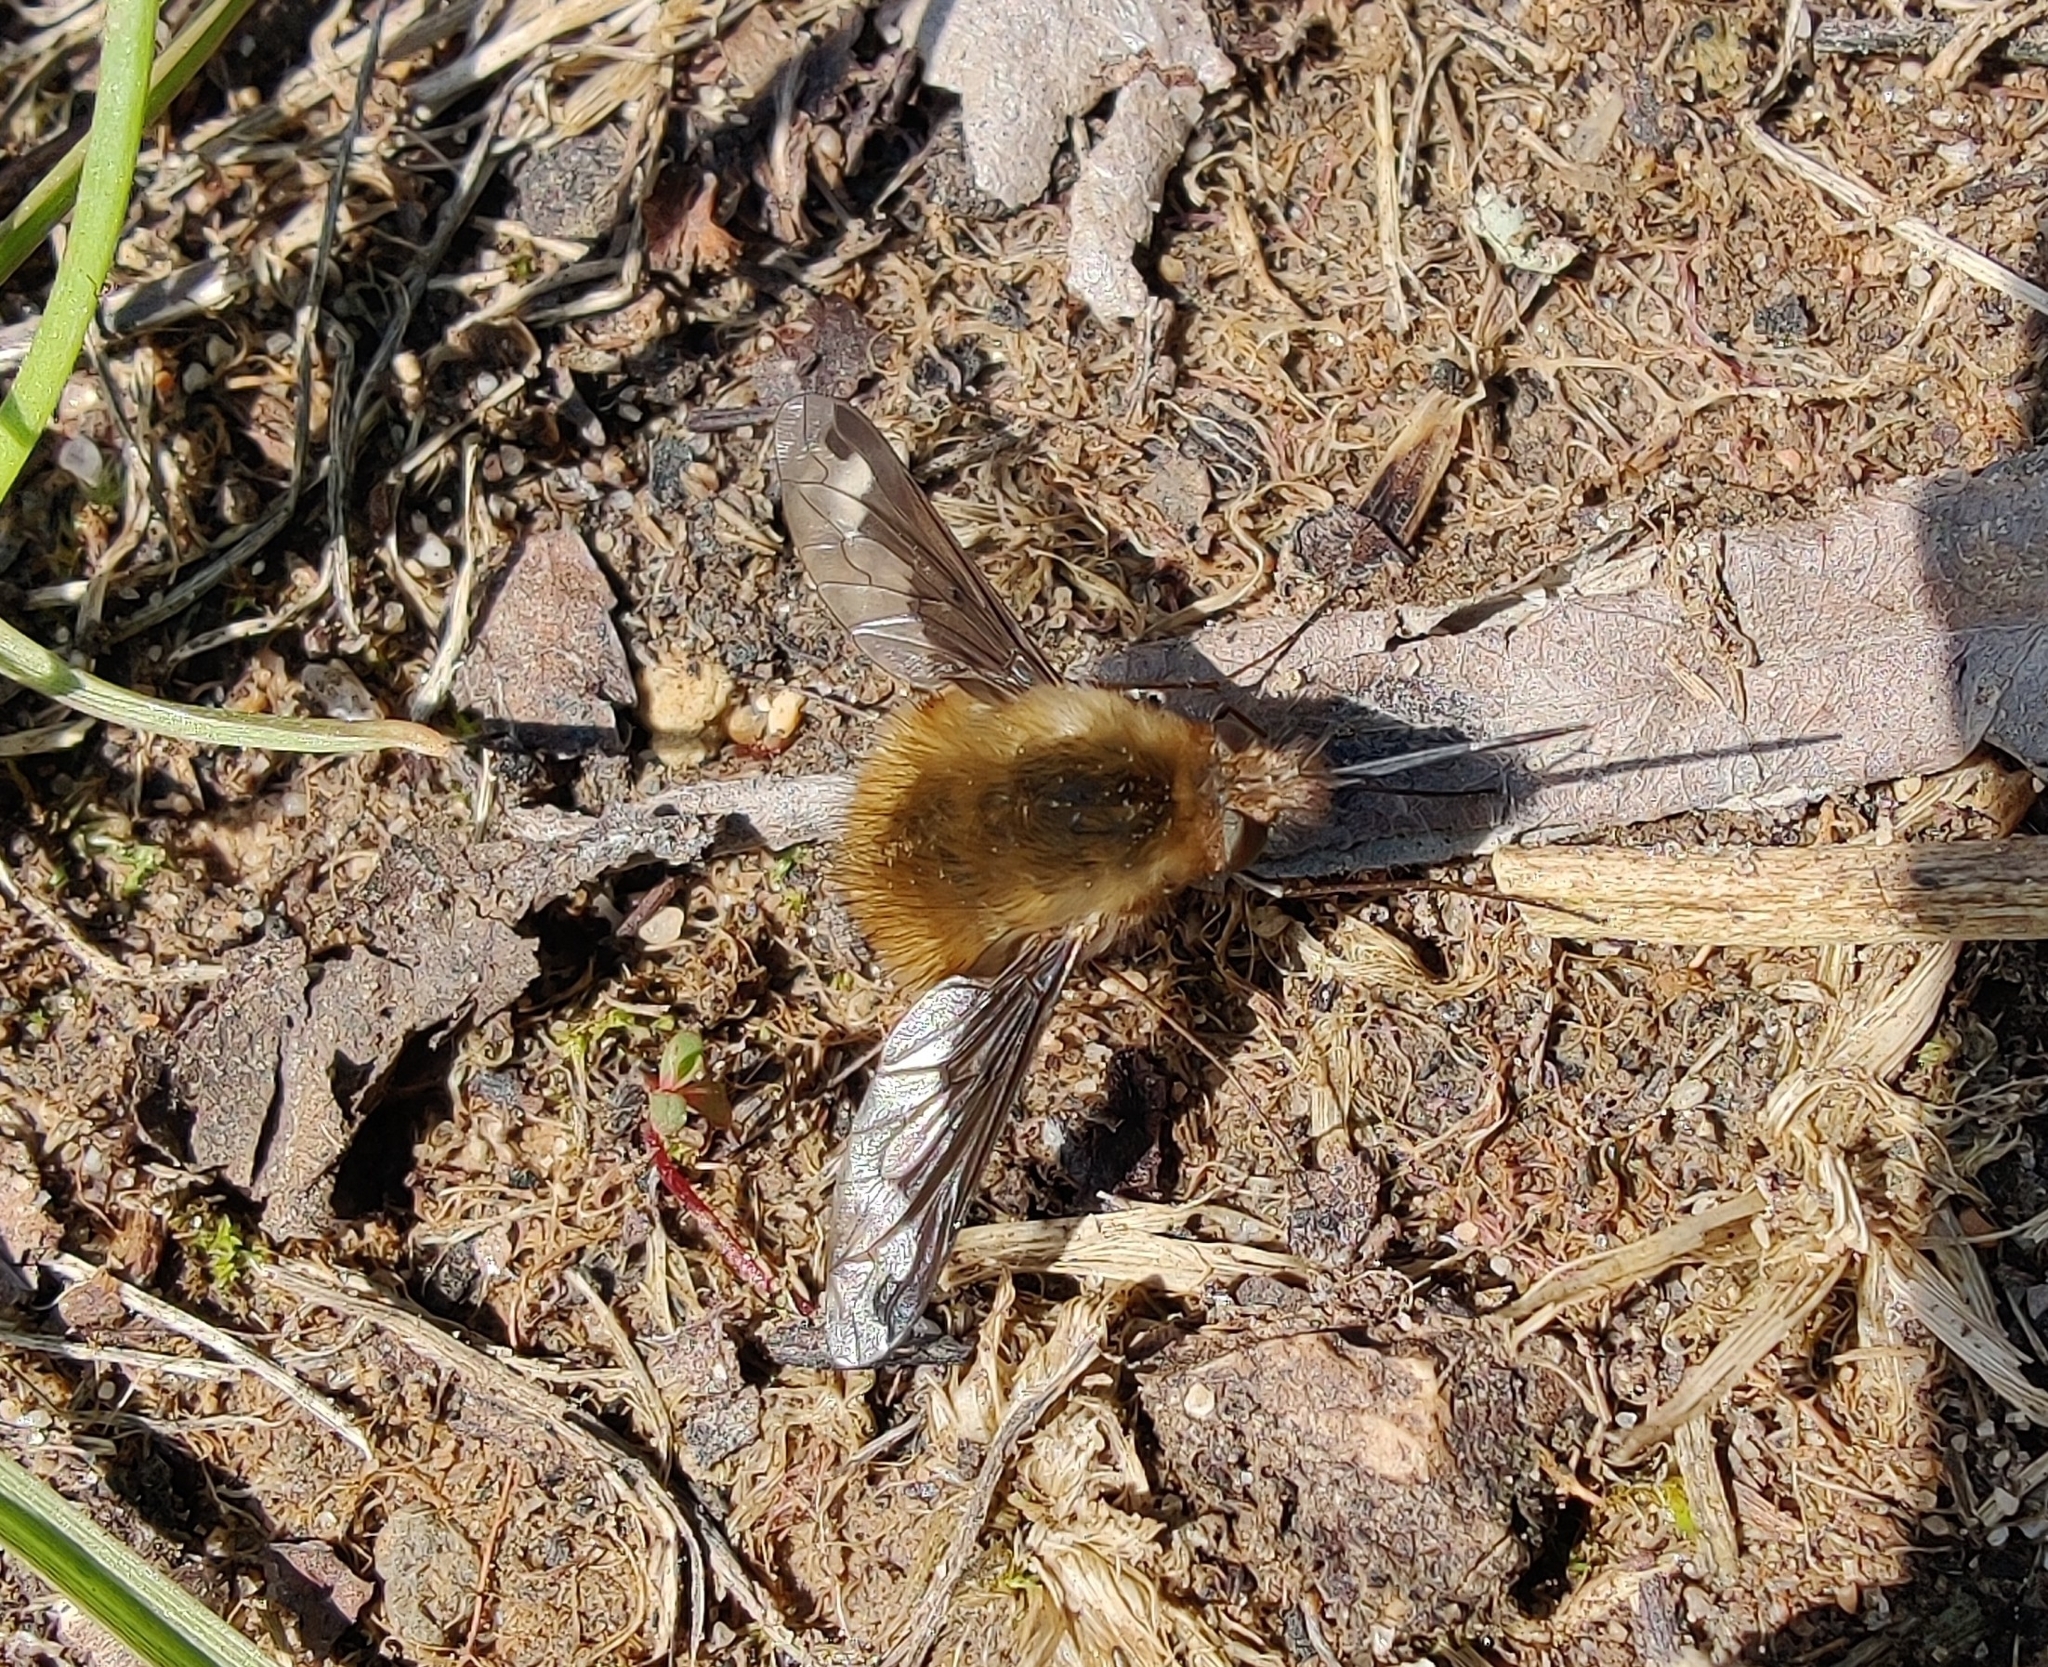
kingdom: Animalia
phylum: Arthropoda
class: Insecta
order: Diptera
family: Bombyliidae
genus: Bombylius
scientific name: Bombylius major
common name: Bee fly
